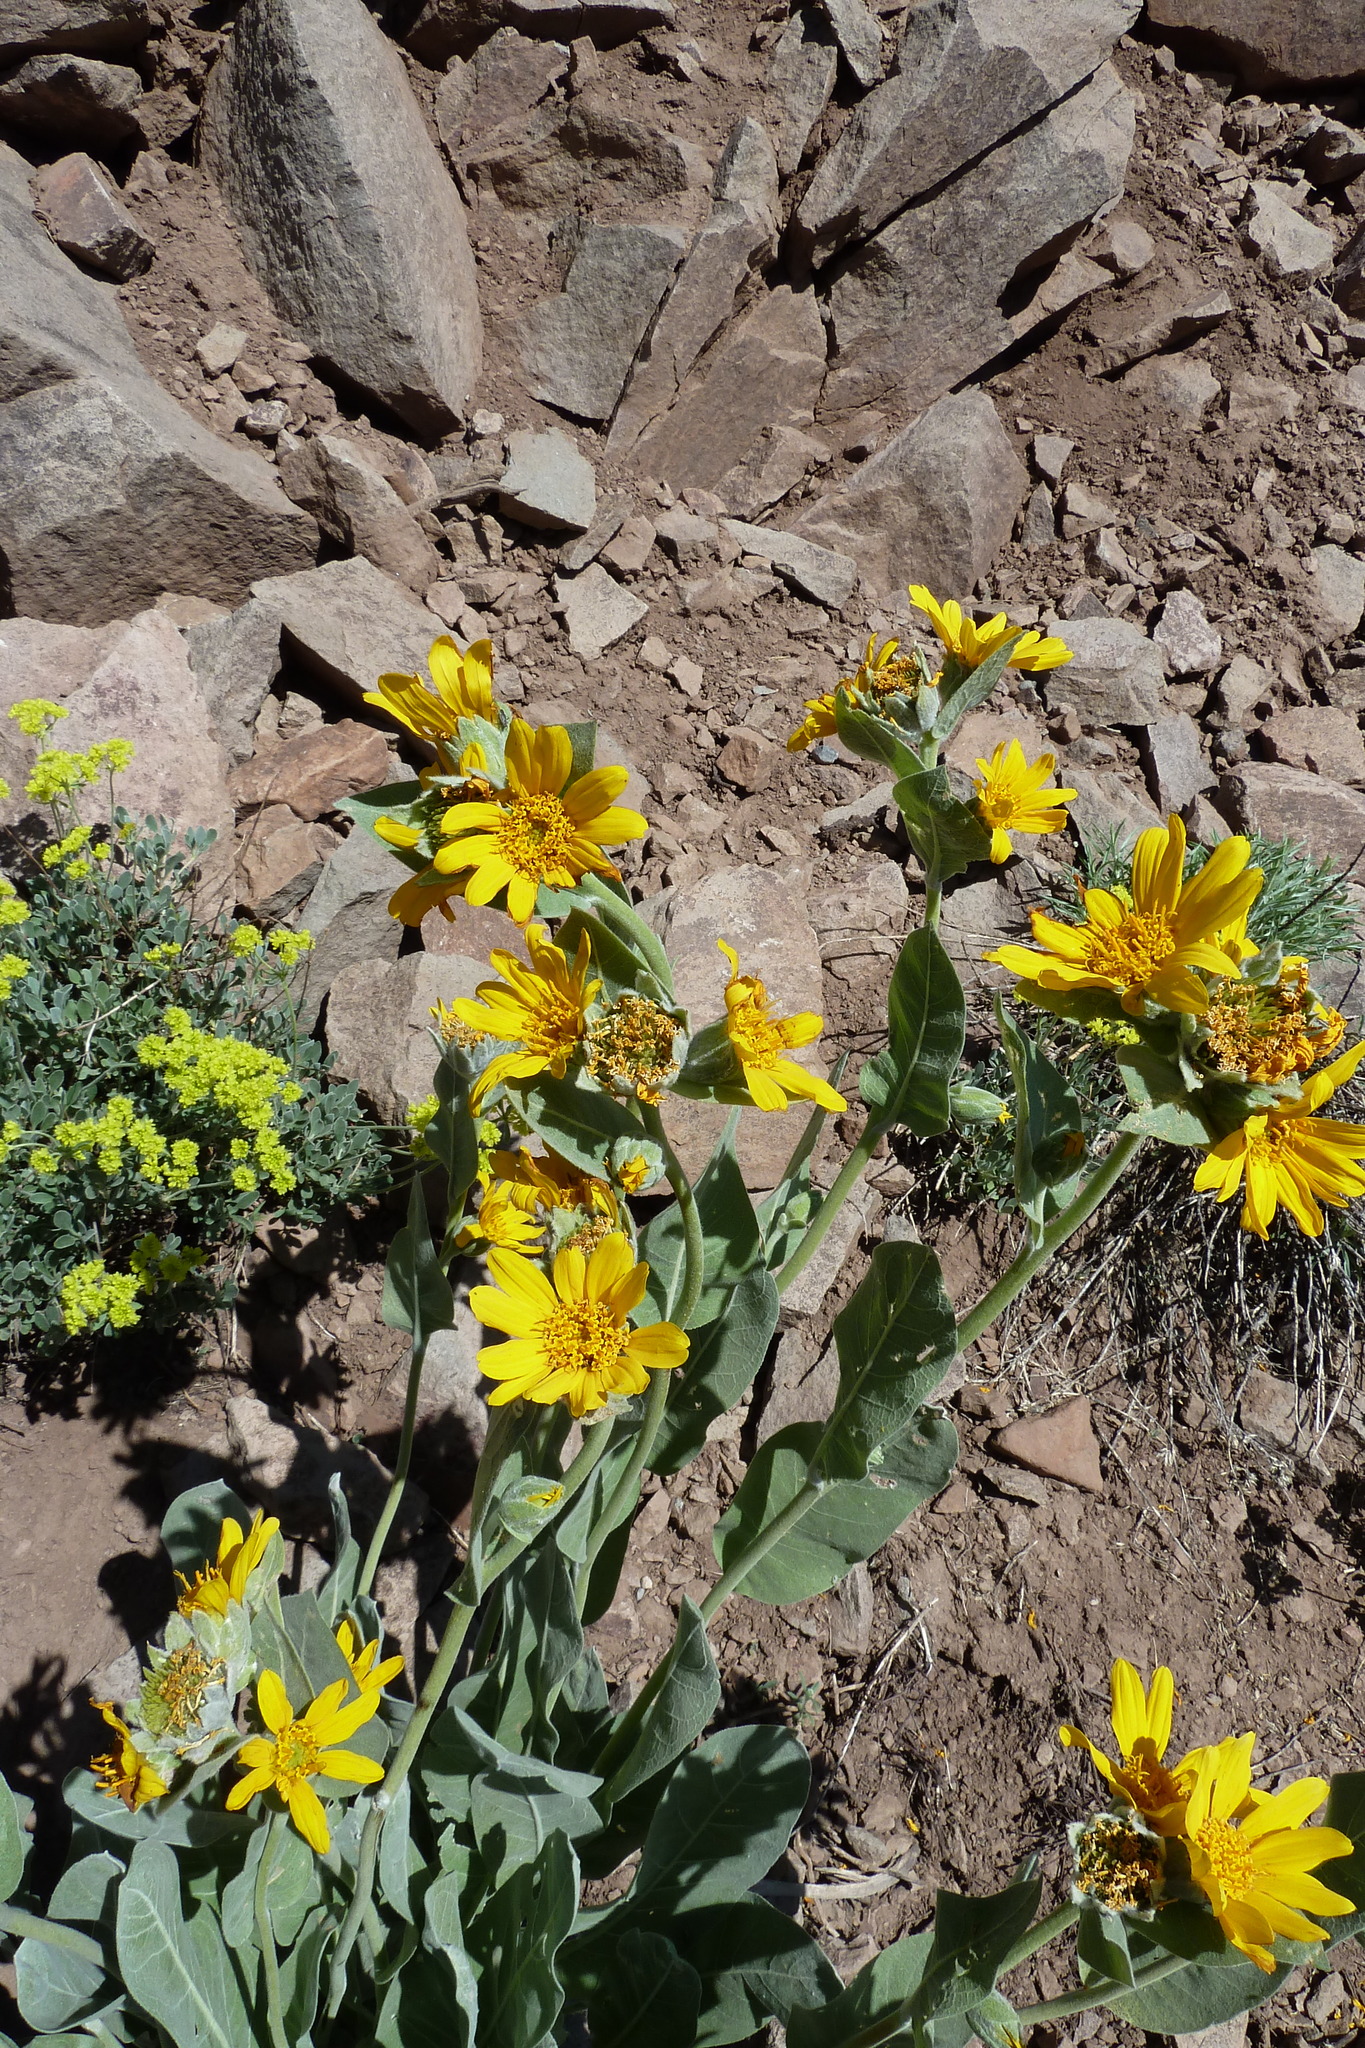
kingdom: Plantae
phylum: Tracheophyta
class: Magnoliopsida
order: Asterales
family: Asteraceae
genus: Wyethia
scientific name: Wyethia mollis
